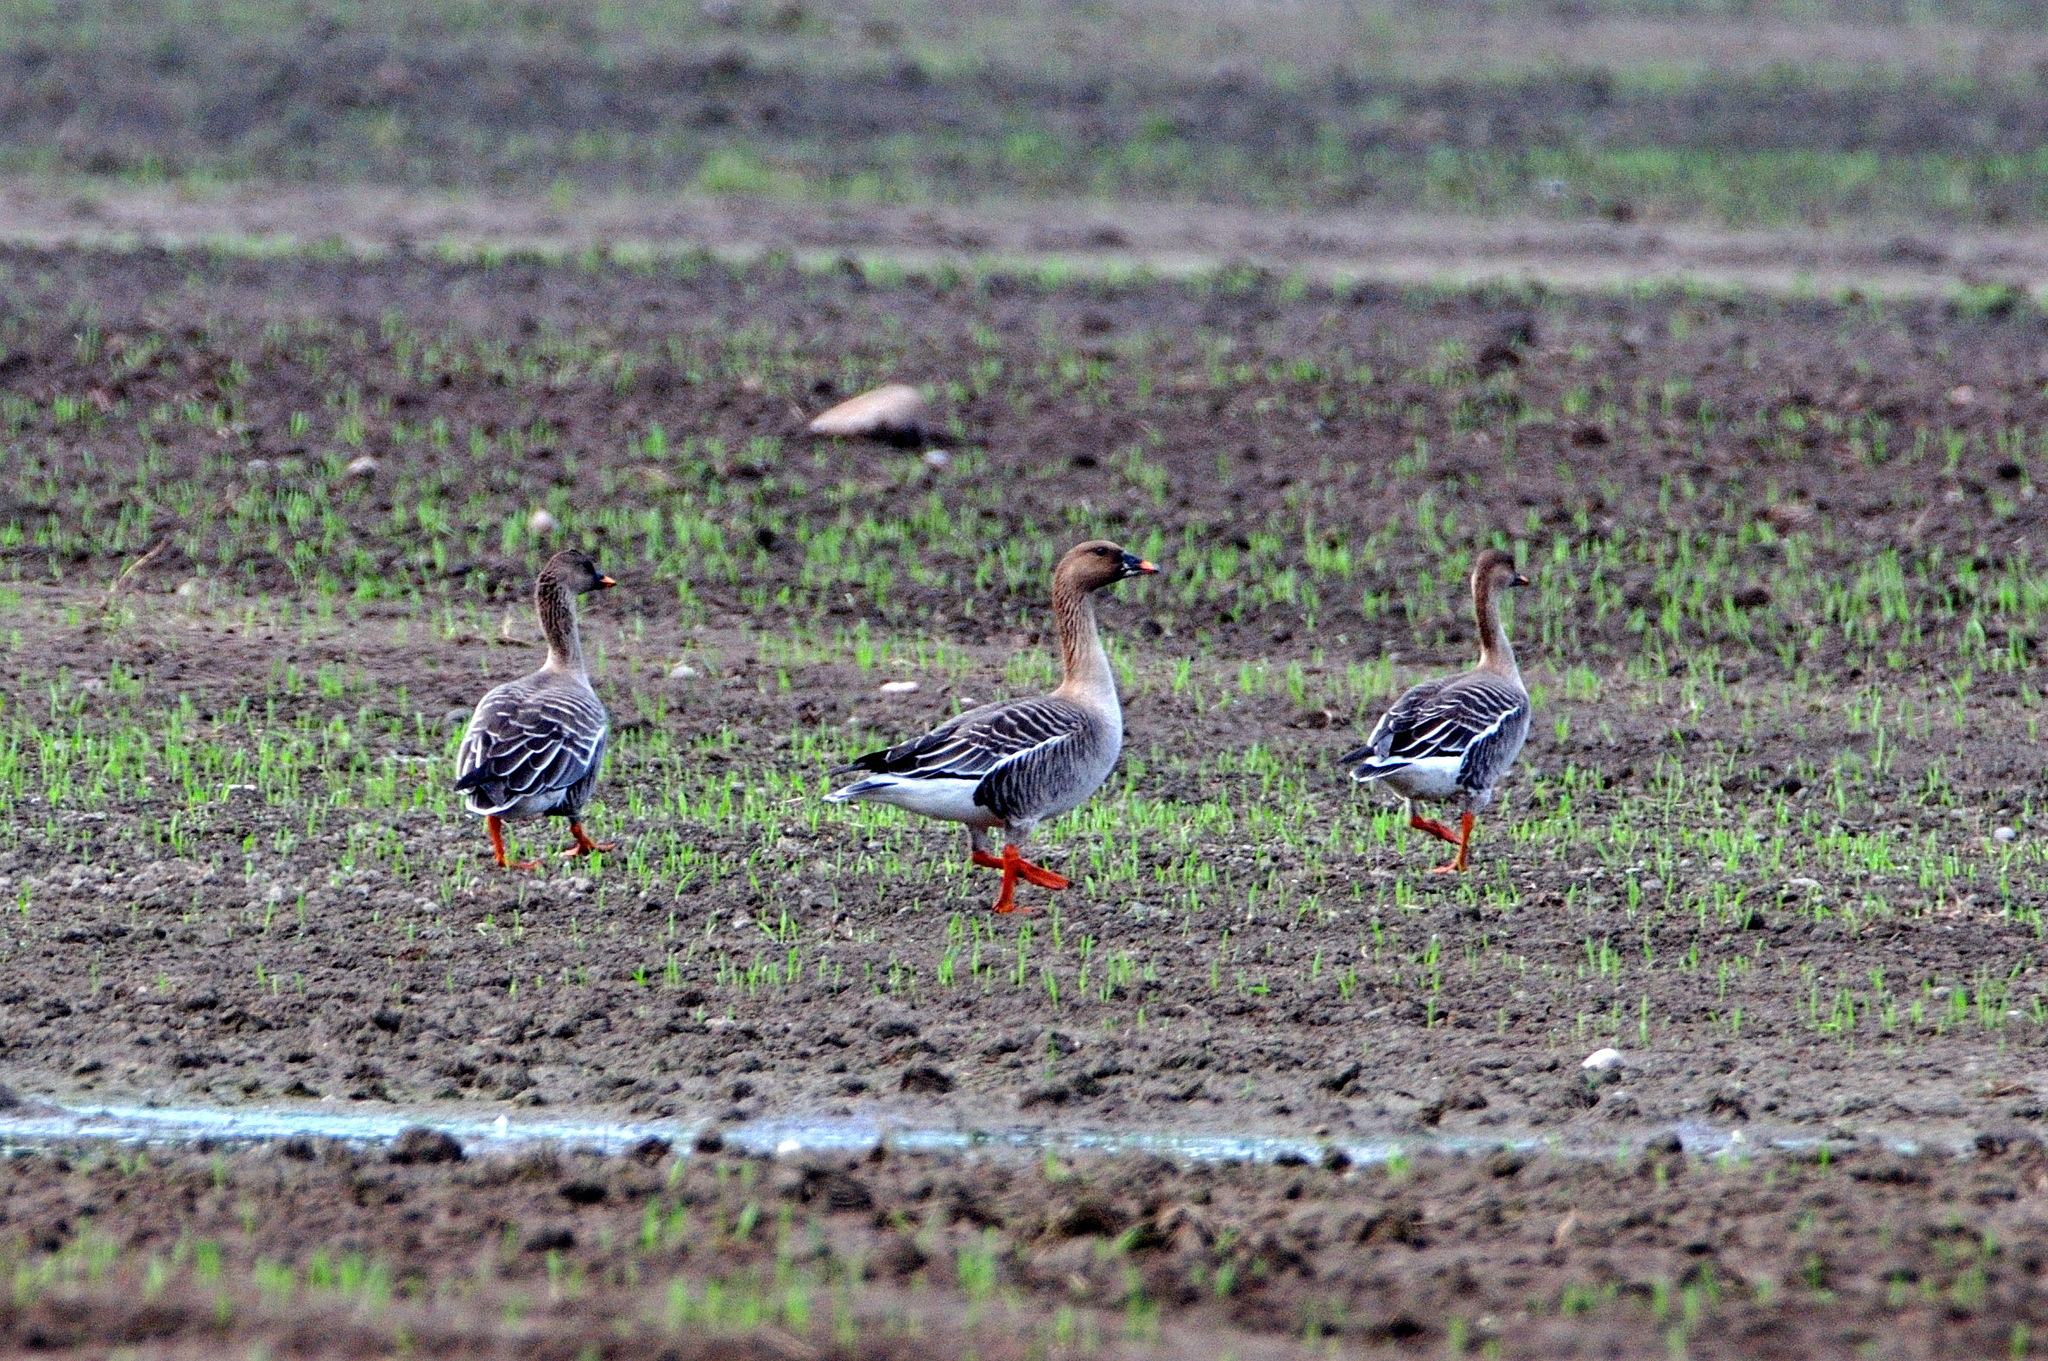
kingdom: Animalia
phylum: Chordata
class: Aves
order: Anseriformes
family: Anatidae
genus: Anser
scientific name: Anser fabalis
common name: Bean goose
